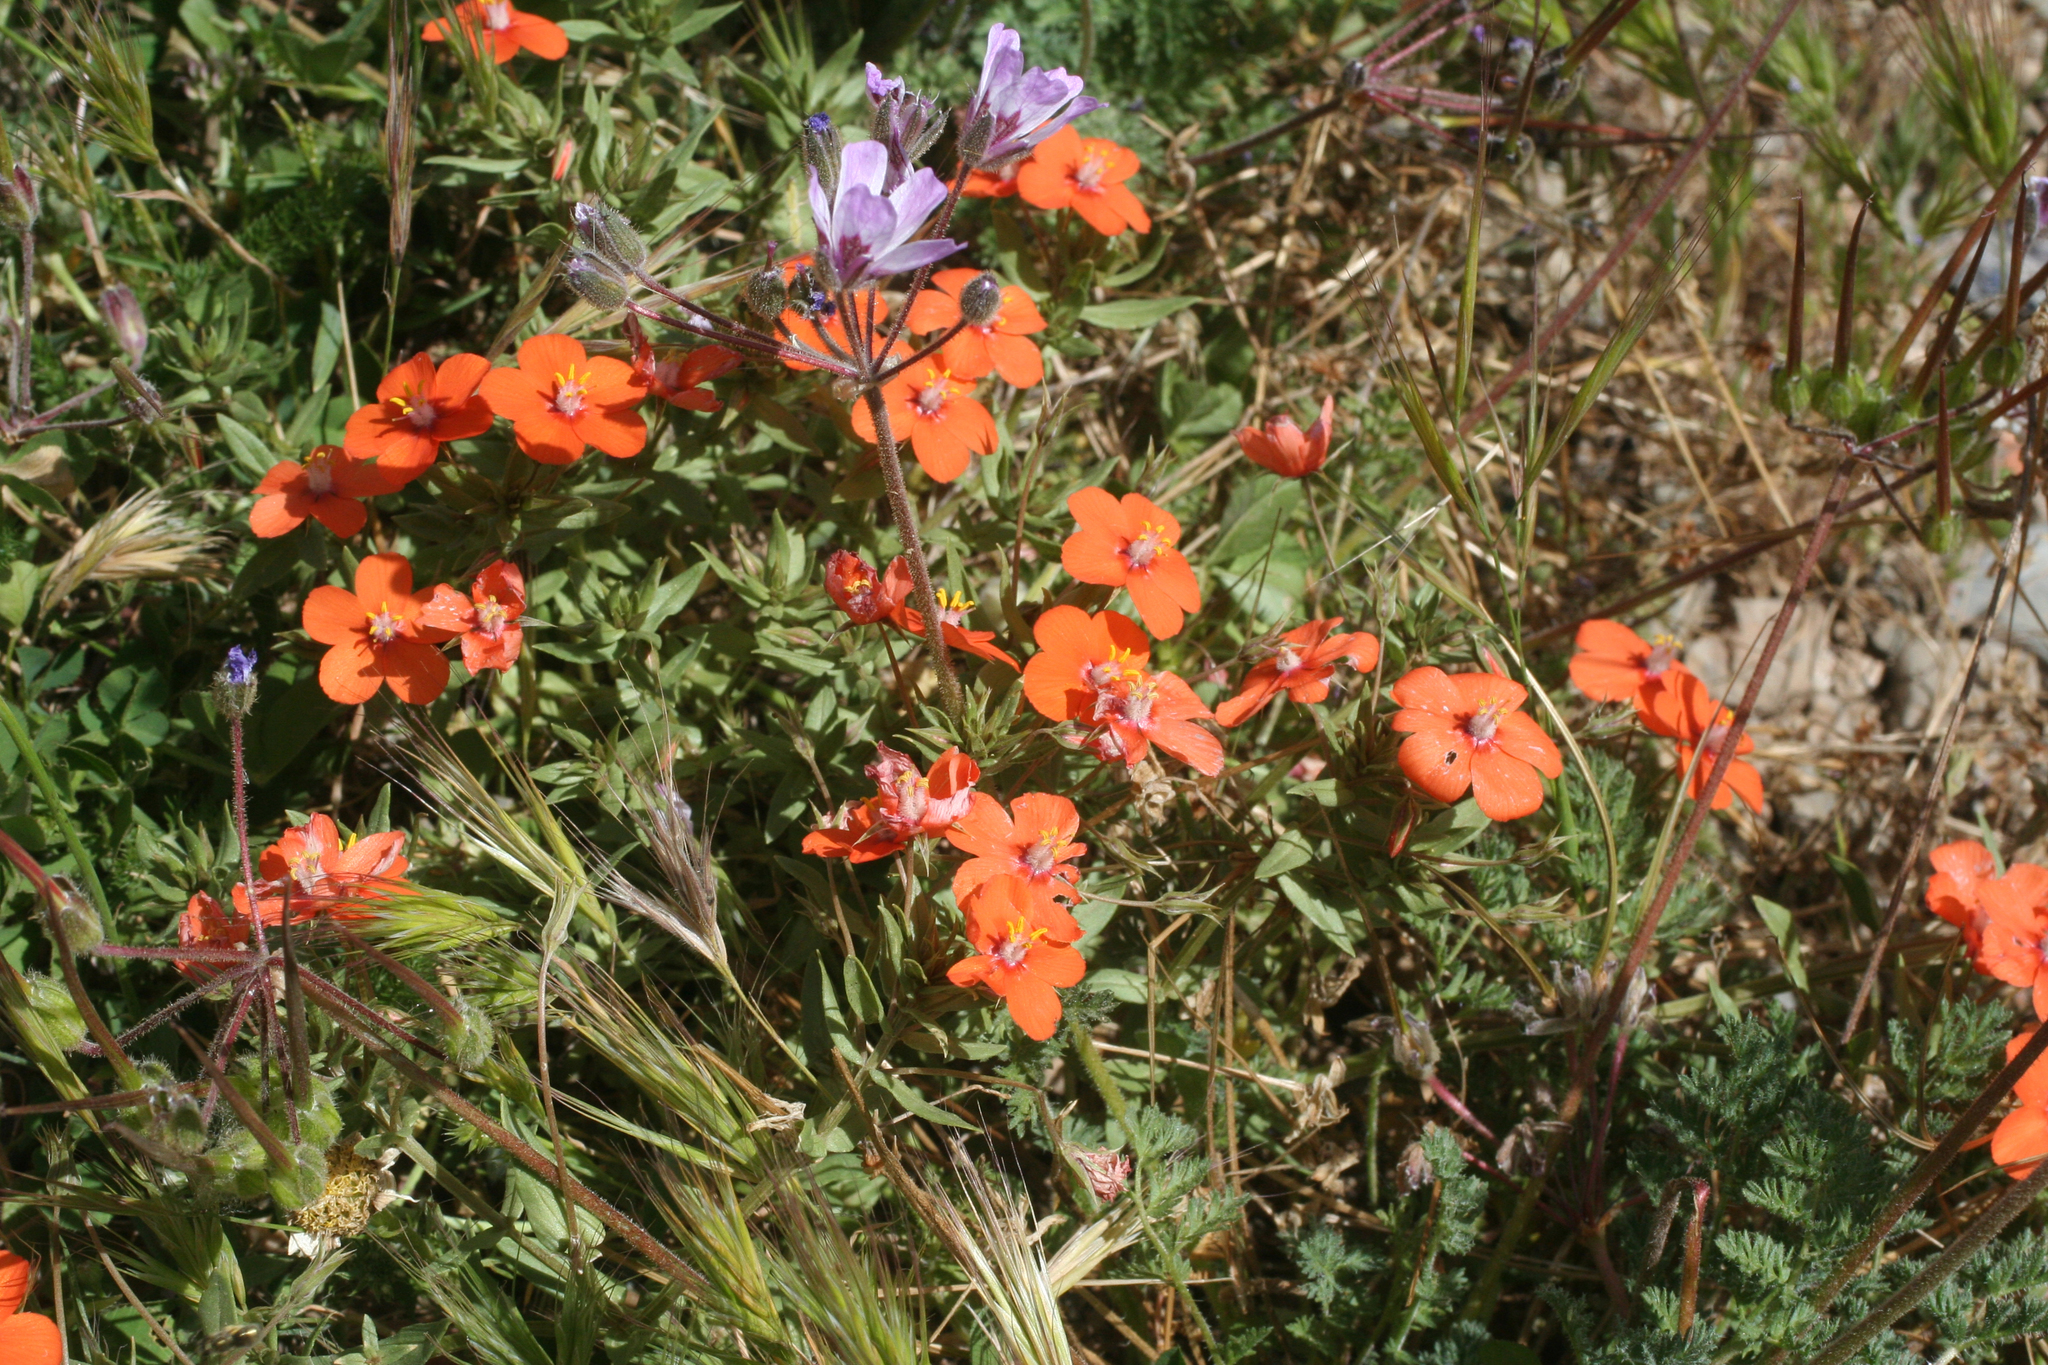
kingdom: Plantae
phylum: Tracheophyta
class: Magnoliopsida
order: Ericales
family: Primulaceae
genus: Lysimachia
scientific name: Lysimachia collina
